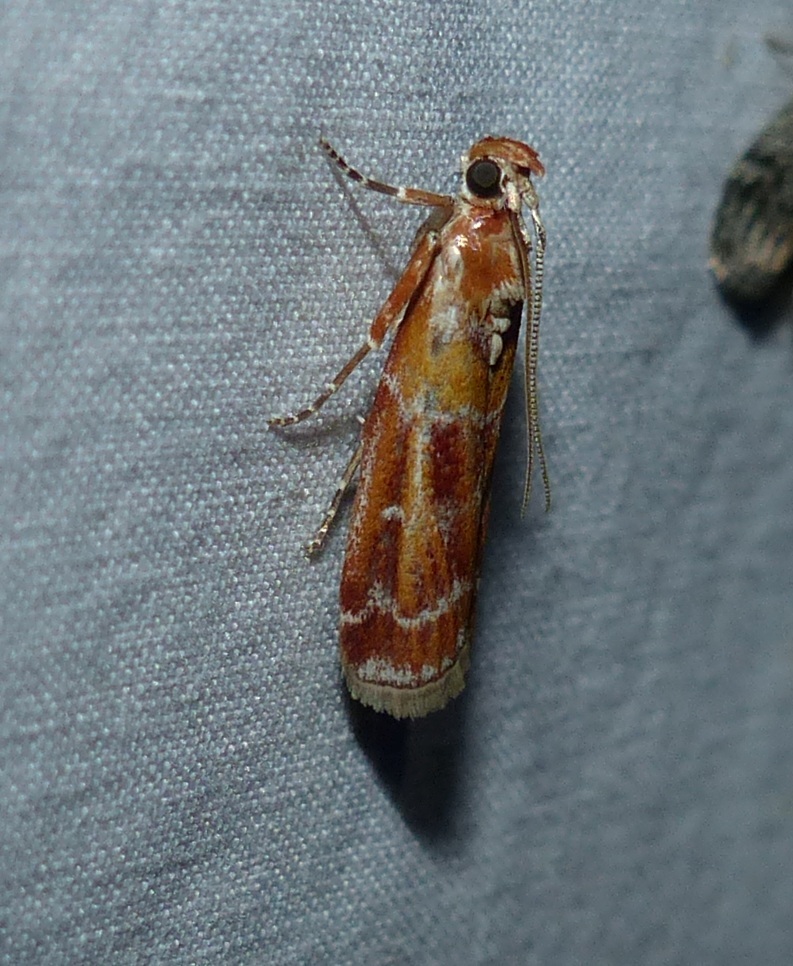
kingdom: Animalia
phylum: Arthropoda
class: Insecta
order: Lepidoptera
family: Pyralidae
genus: Dioryctria
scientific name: Dioryctria disclusa
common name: Rusty pine cone moth
